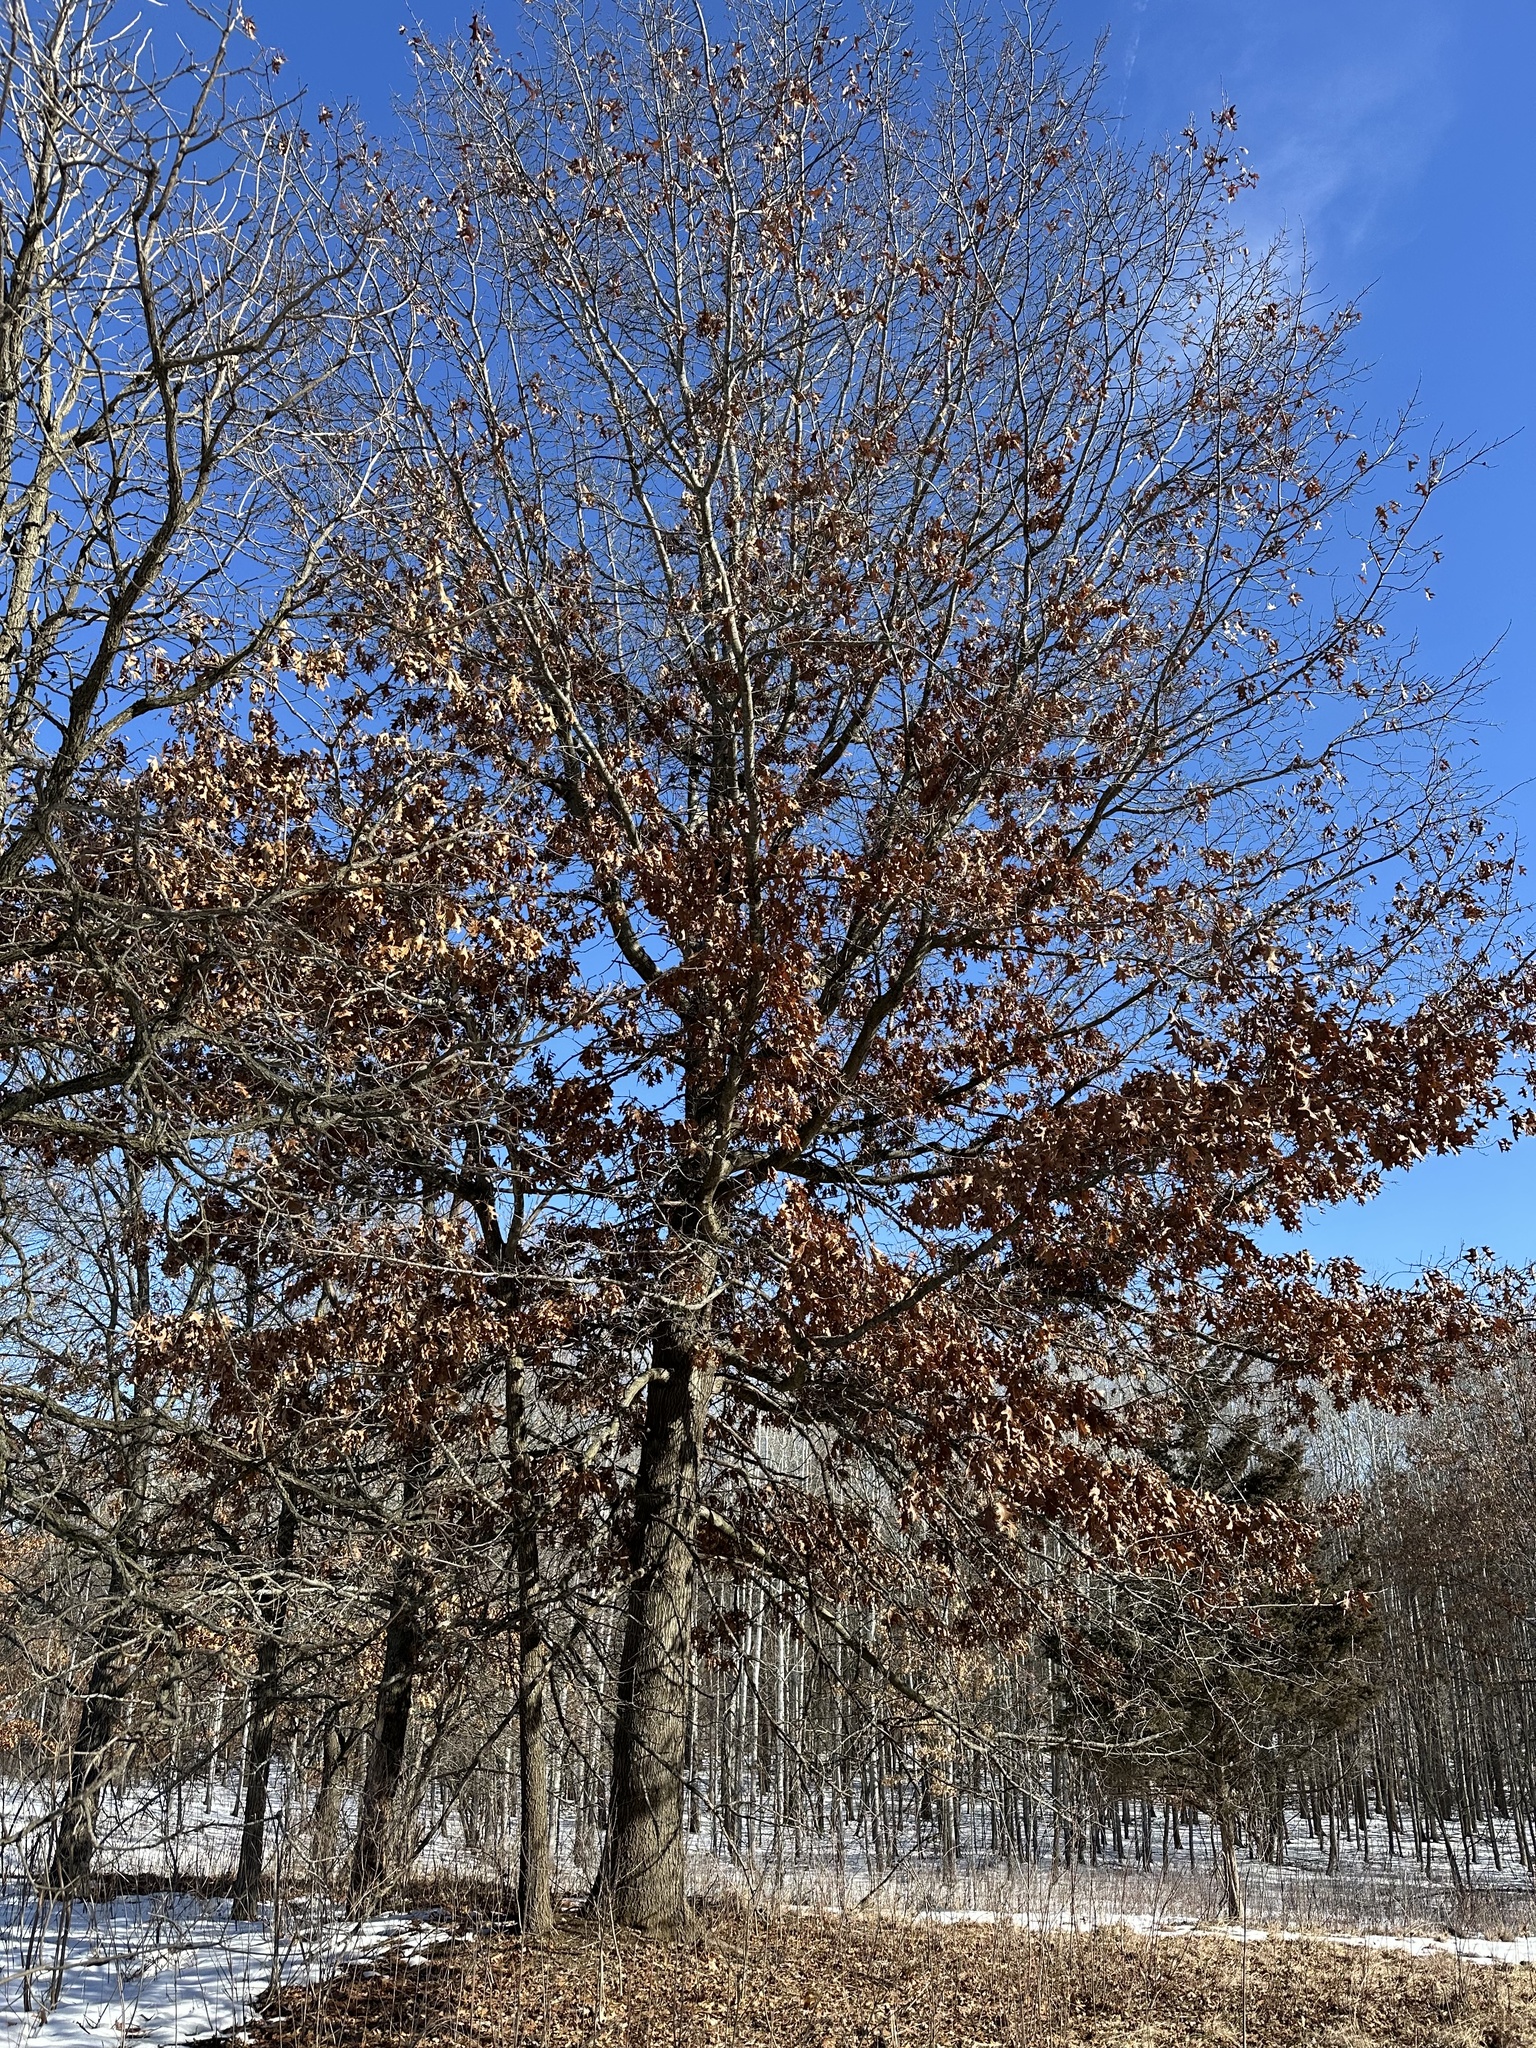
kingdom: Plantae
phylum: Tracheophyta
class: Magnoliopsida
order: Fagales
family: Fagaceae
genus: Quercus
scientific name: Quercus ellipsoidalis
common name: Hill's oak
